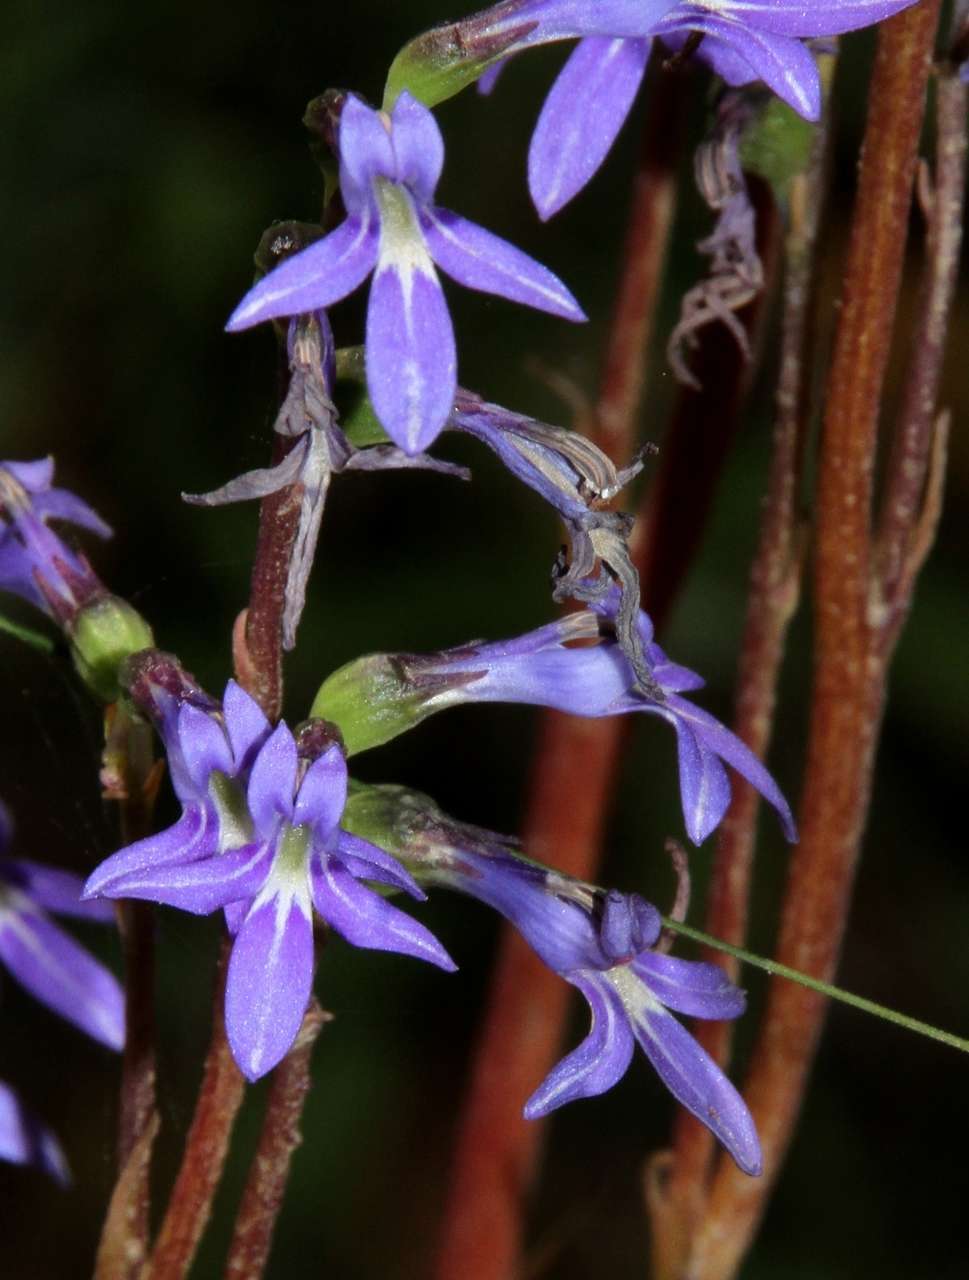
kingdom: Plantae
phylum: Tracheophyta
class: Magnoliopsida
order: Asterales
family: Campanulaceae
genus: Lobelia
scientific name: Lobelia gibbosa
